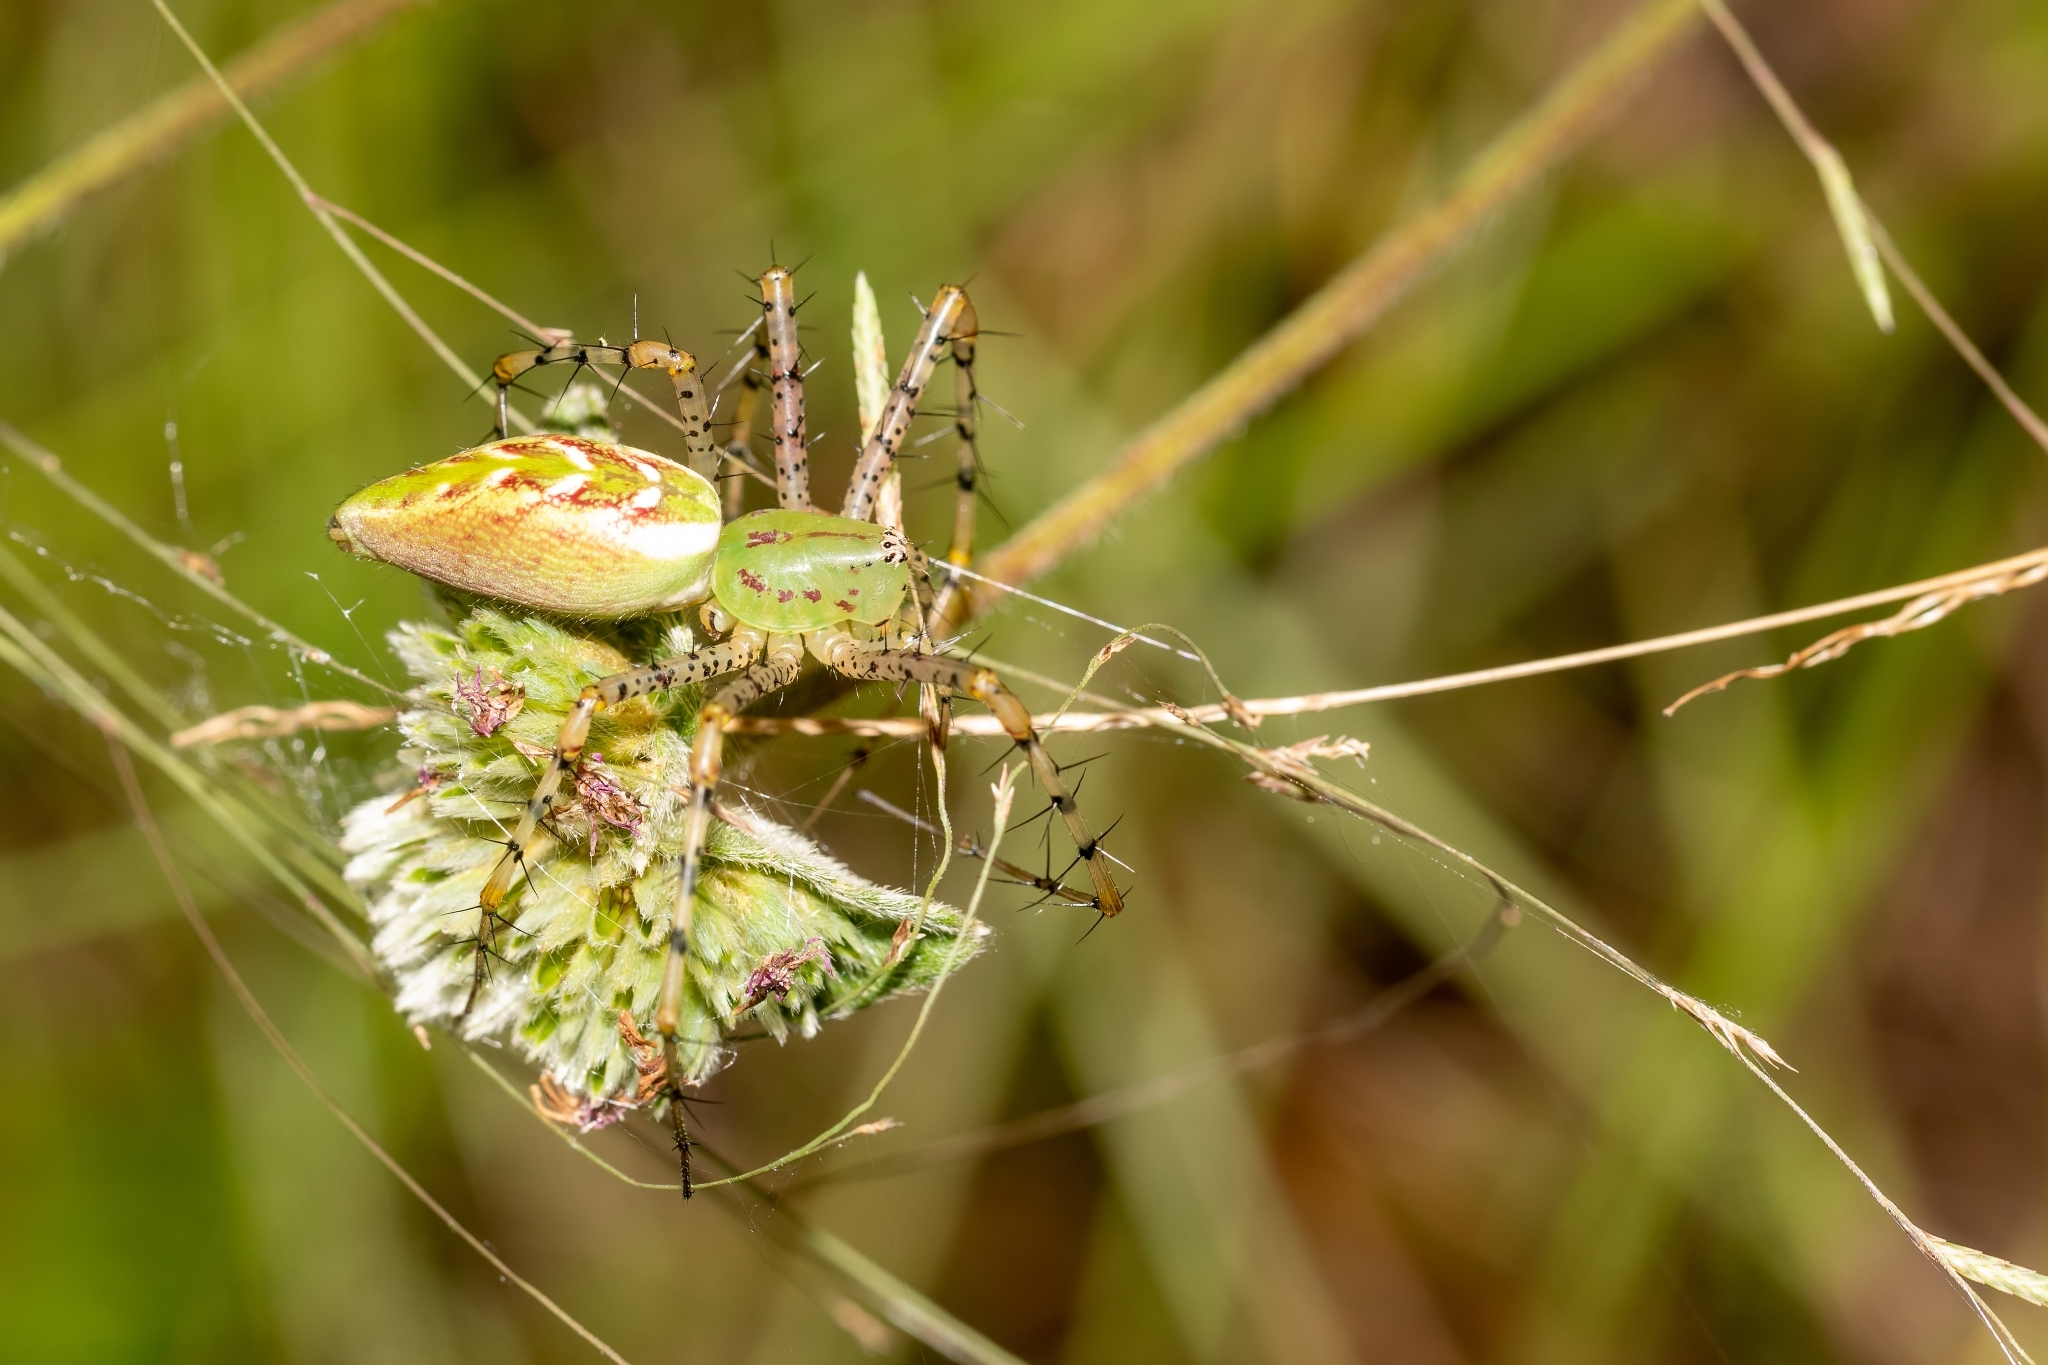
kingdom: Animalia
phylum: Arthropoda
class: Arachnida
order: Araneae
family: Oxyopidae
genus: Peucetia
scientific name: Peucetia viridans
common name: Lynx spiders
